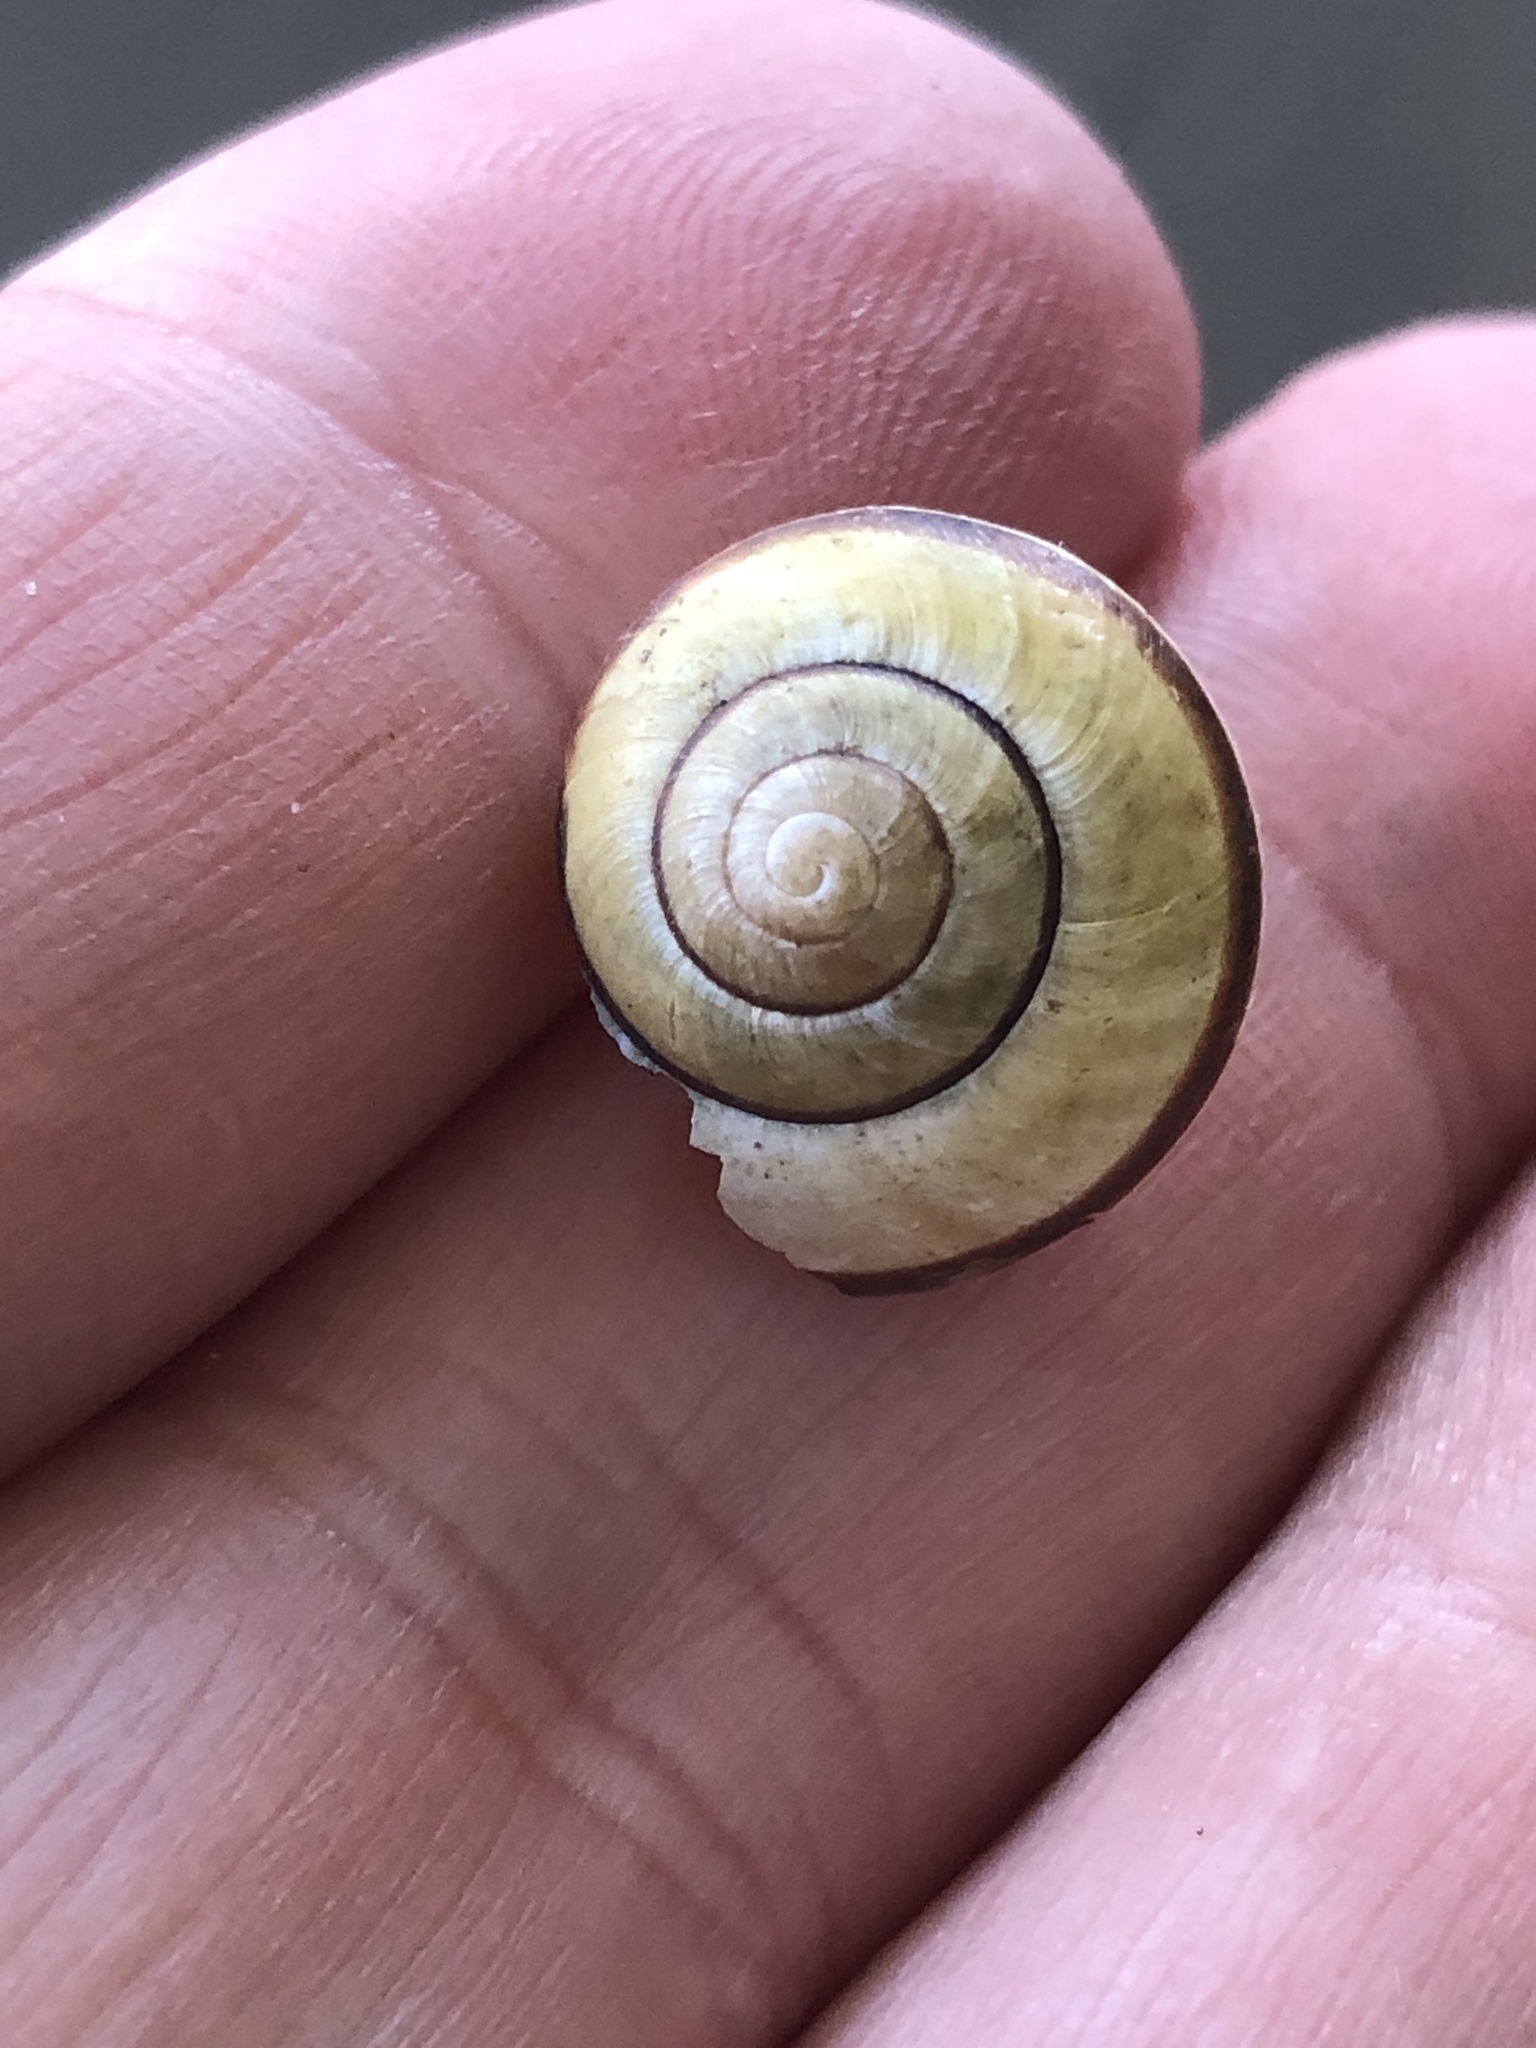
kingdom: Animalia
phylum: Mollusca
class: Gastropoda
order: Stylommatophora
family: Helicidae
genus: Cepaea
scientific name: Cepaea nemoralis
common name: Grovesnail
